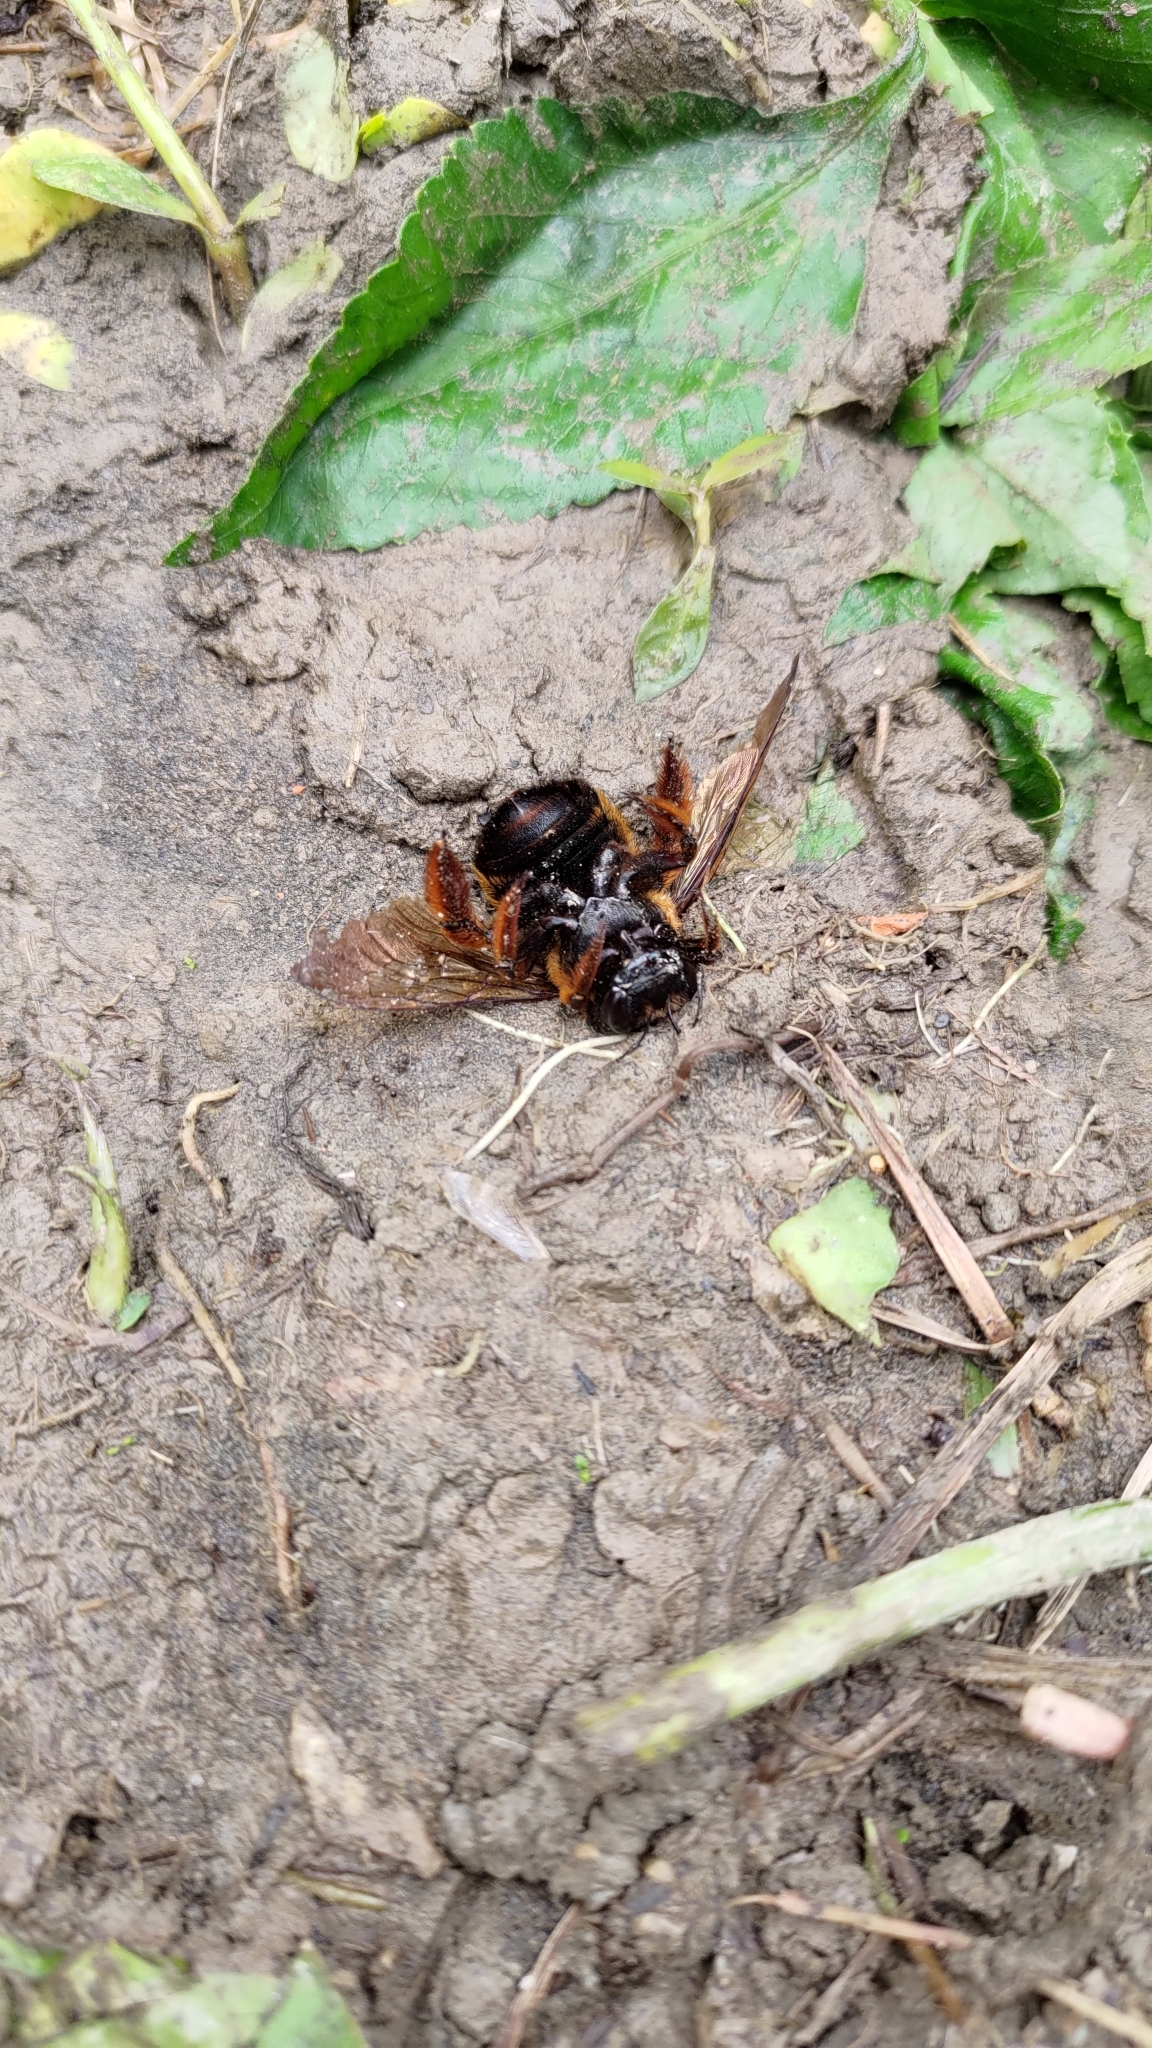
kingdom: Animalia
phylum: Arthropoda
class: Insecta
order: Hymenoptera
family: Apidae
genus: Xylocopa
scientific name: Xylocopa ruficeps
